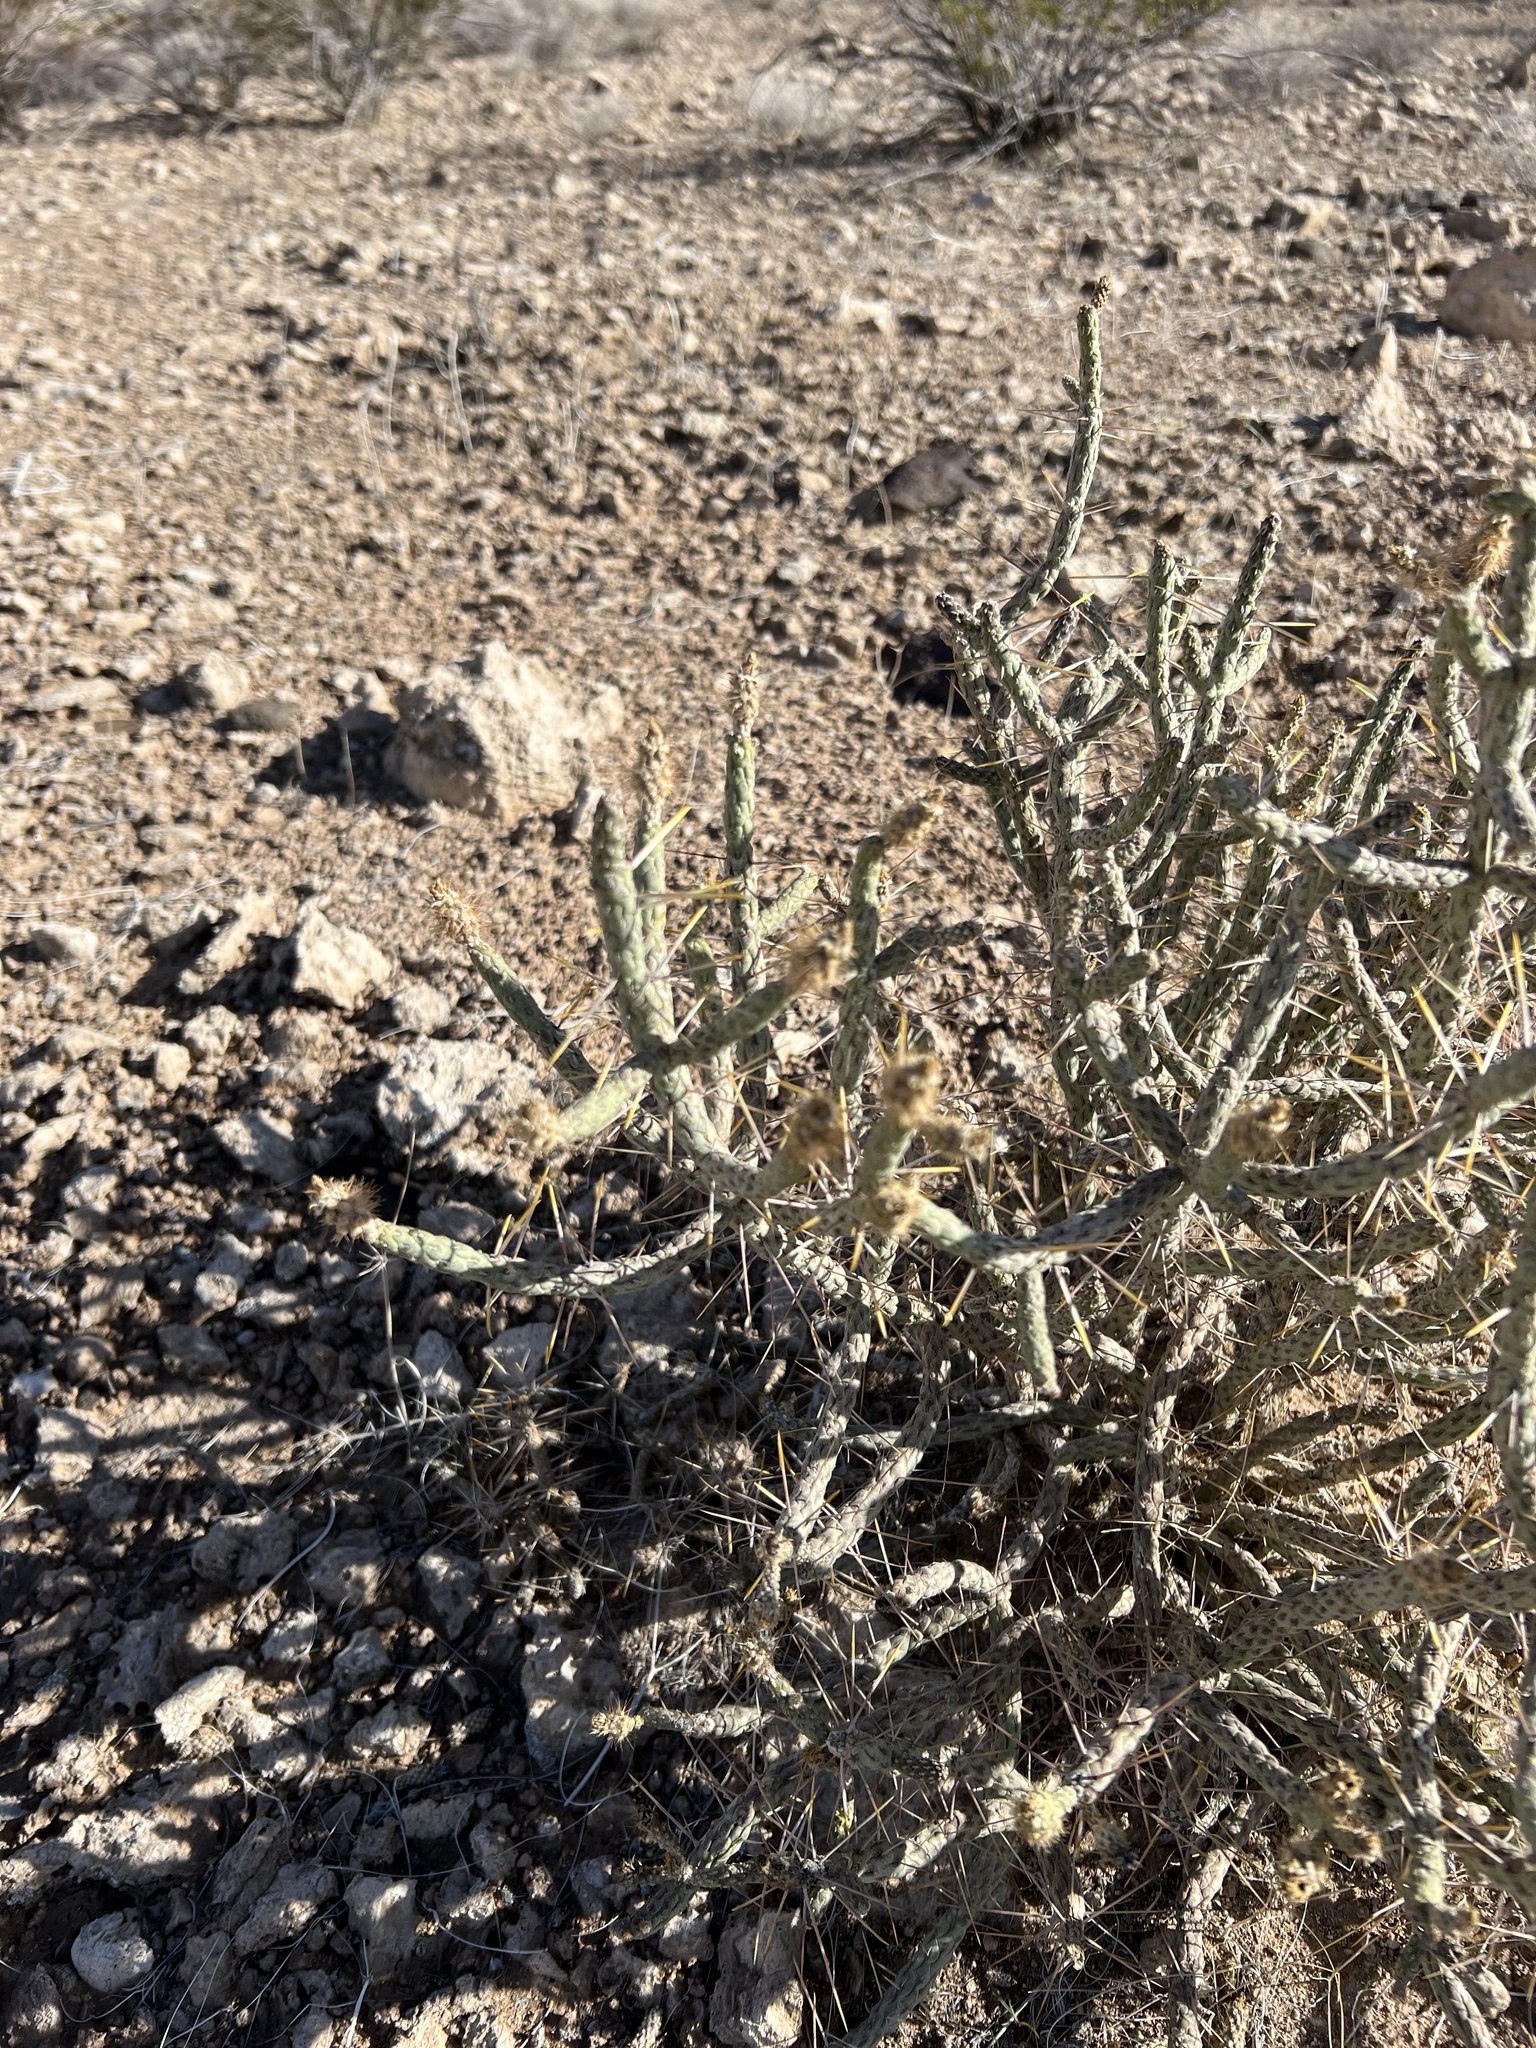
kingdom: Plantae
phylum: Tracheophyta
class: Magnoliopsida
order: Caryophyllales
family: Cactaceae
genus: Cylindropuntia
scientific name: Cylindropuntia ramosissima
